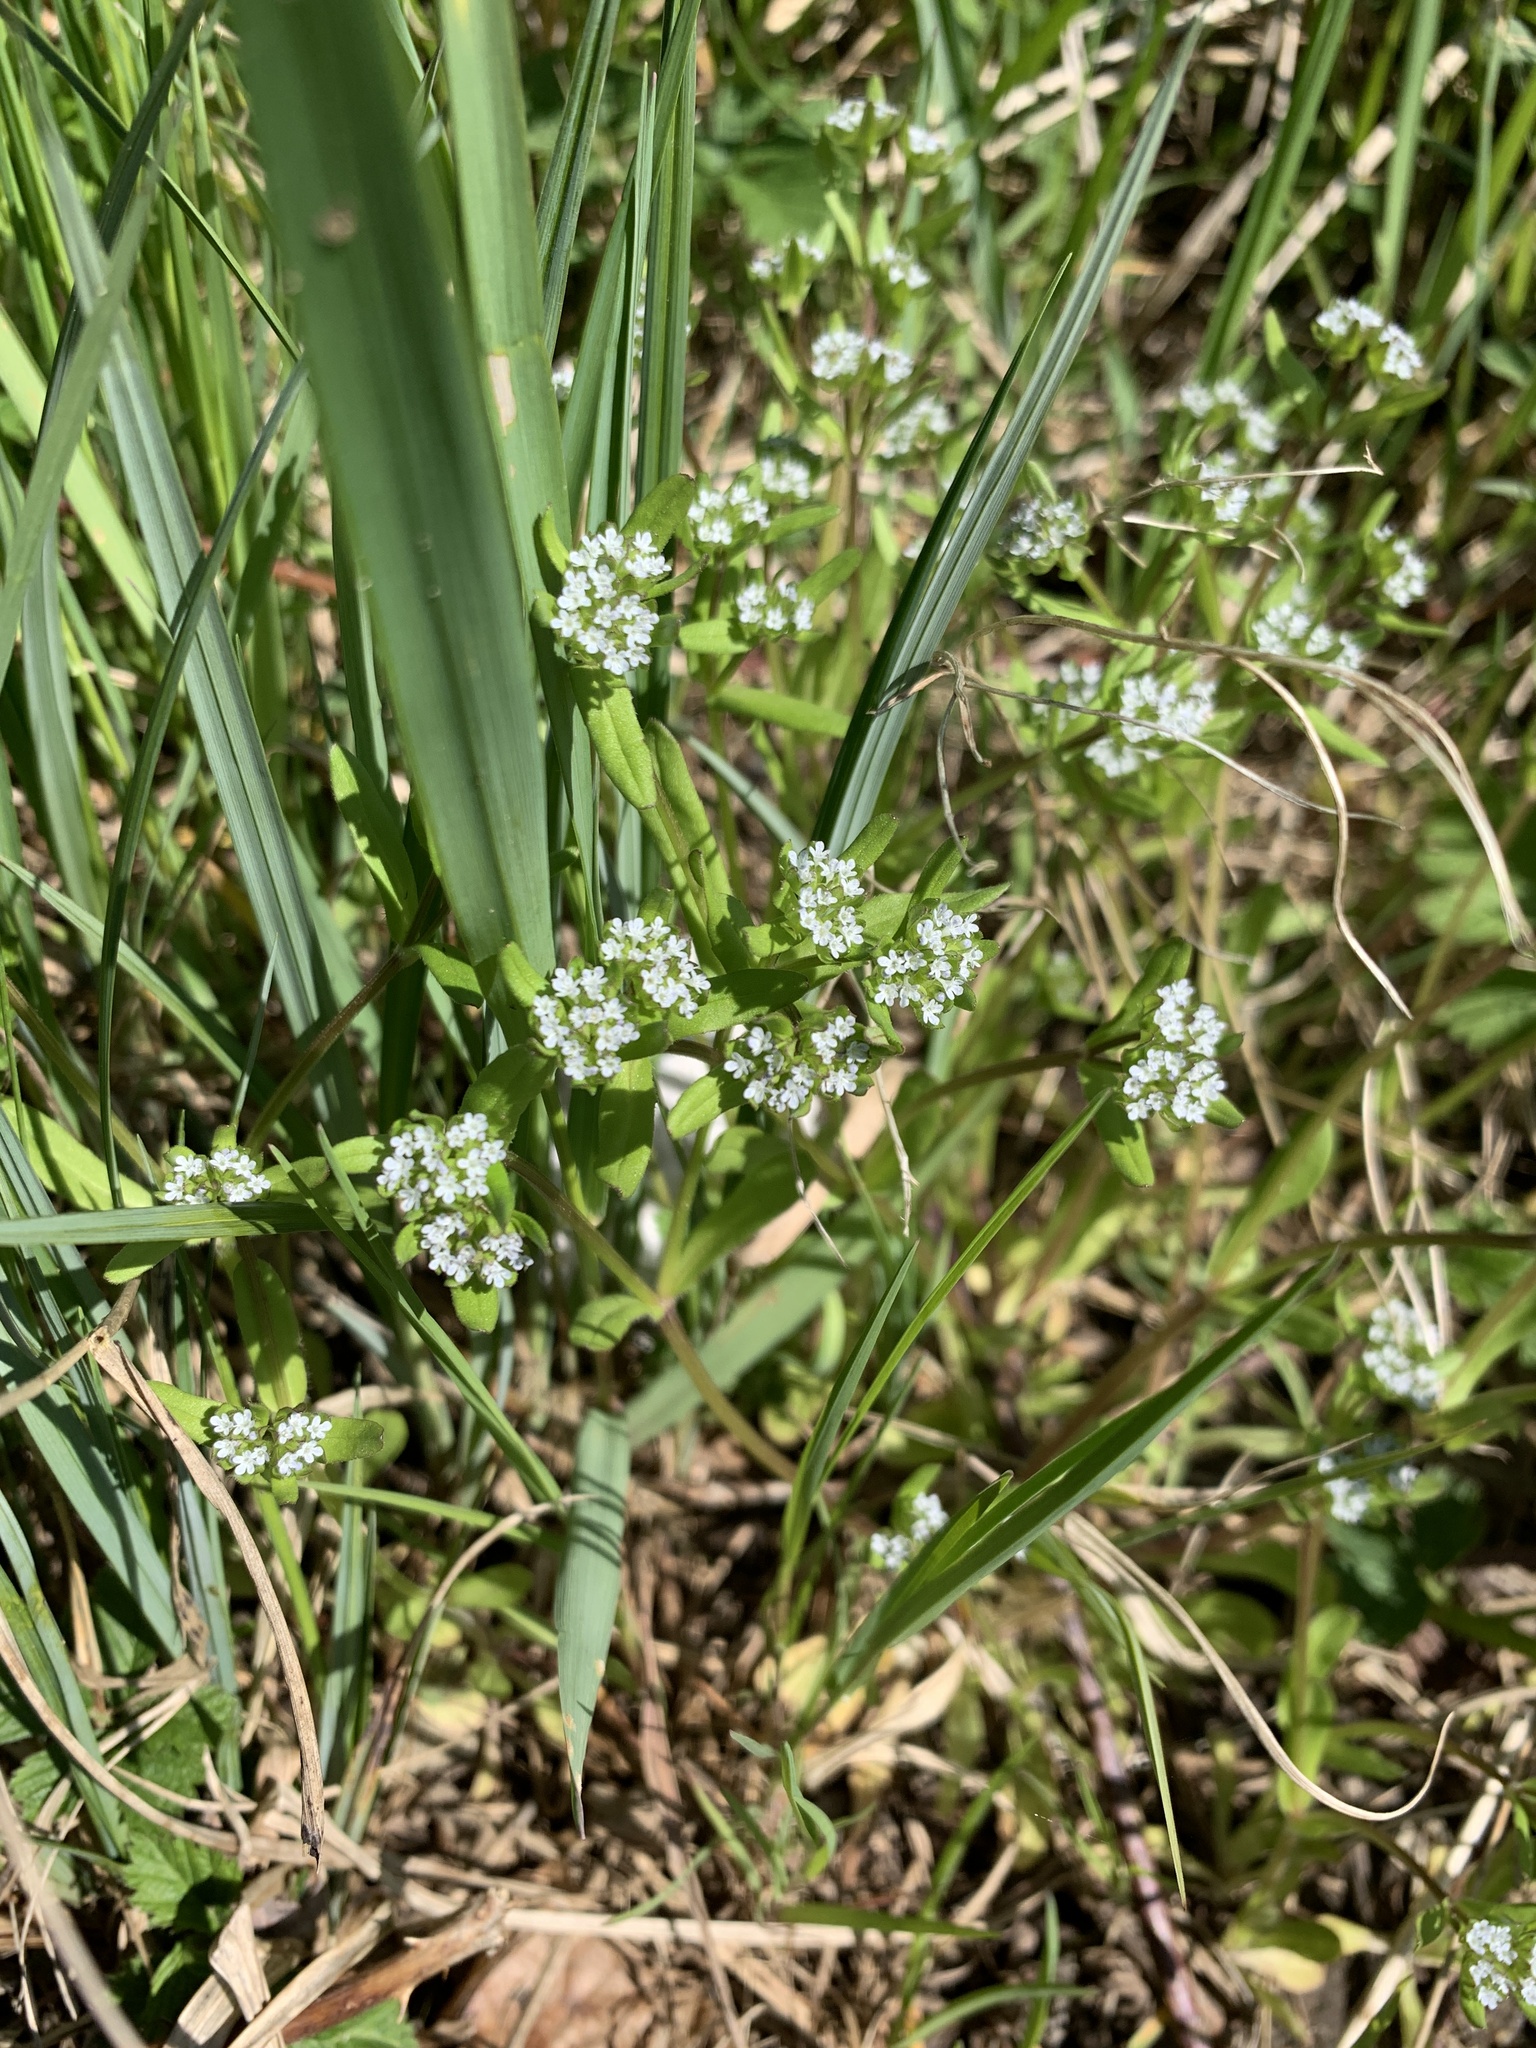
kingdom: Plantae
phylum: Tracheophyta
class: Magnoliopsida
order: Dipsacales
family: Caprifoliaceae
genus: Valerianella
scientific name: Valerianella locusta
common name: Common cornsalad
